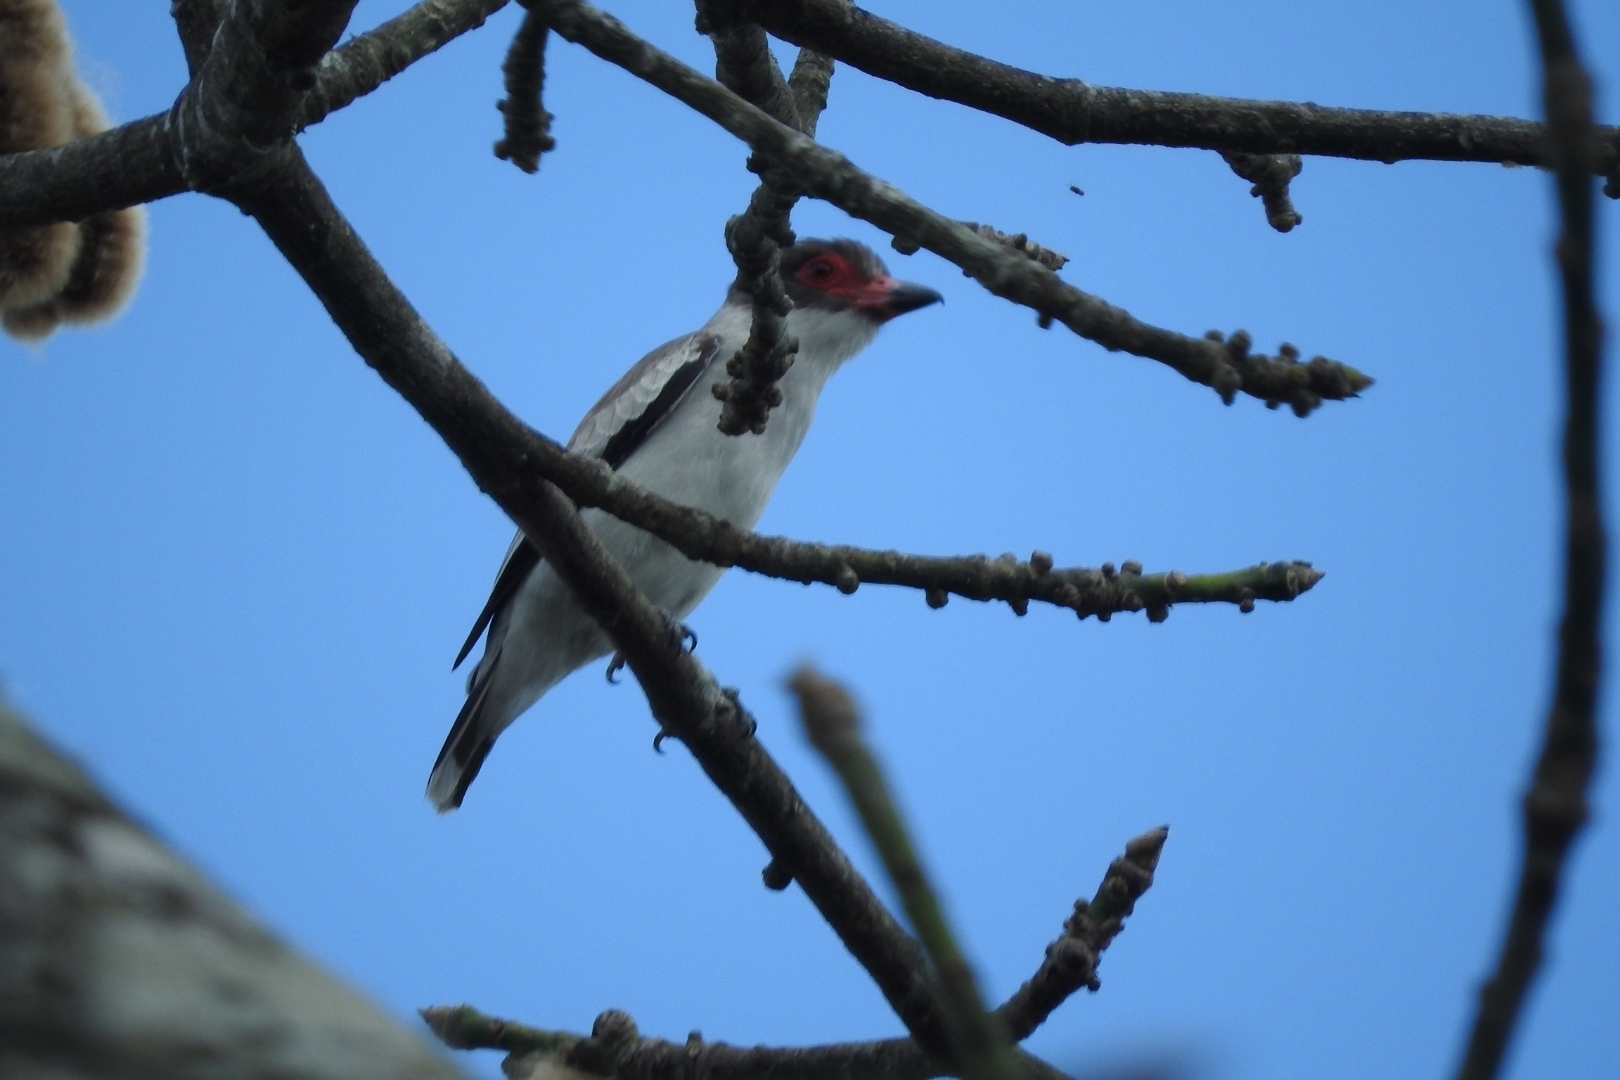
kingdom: Animalia
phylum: Chordata
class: Aves
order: Passeriformes
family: Cotingidae
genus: Tityra
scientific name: Tityra semifasciata
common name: Masked tityra
